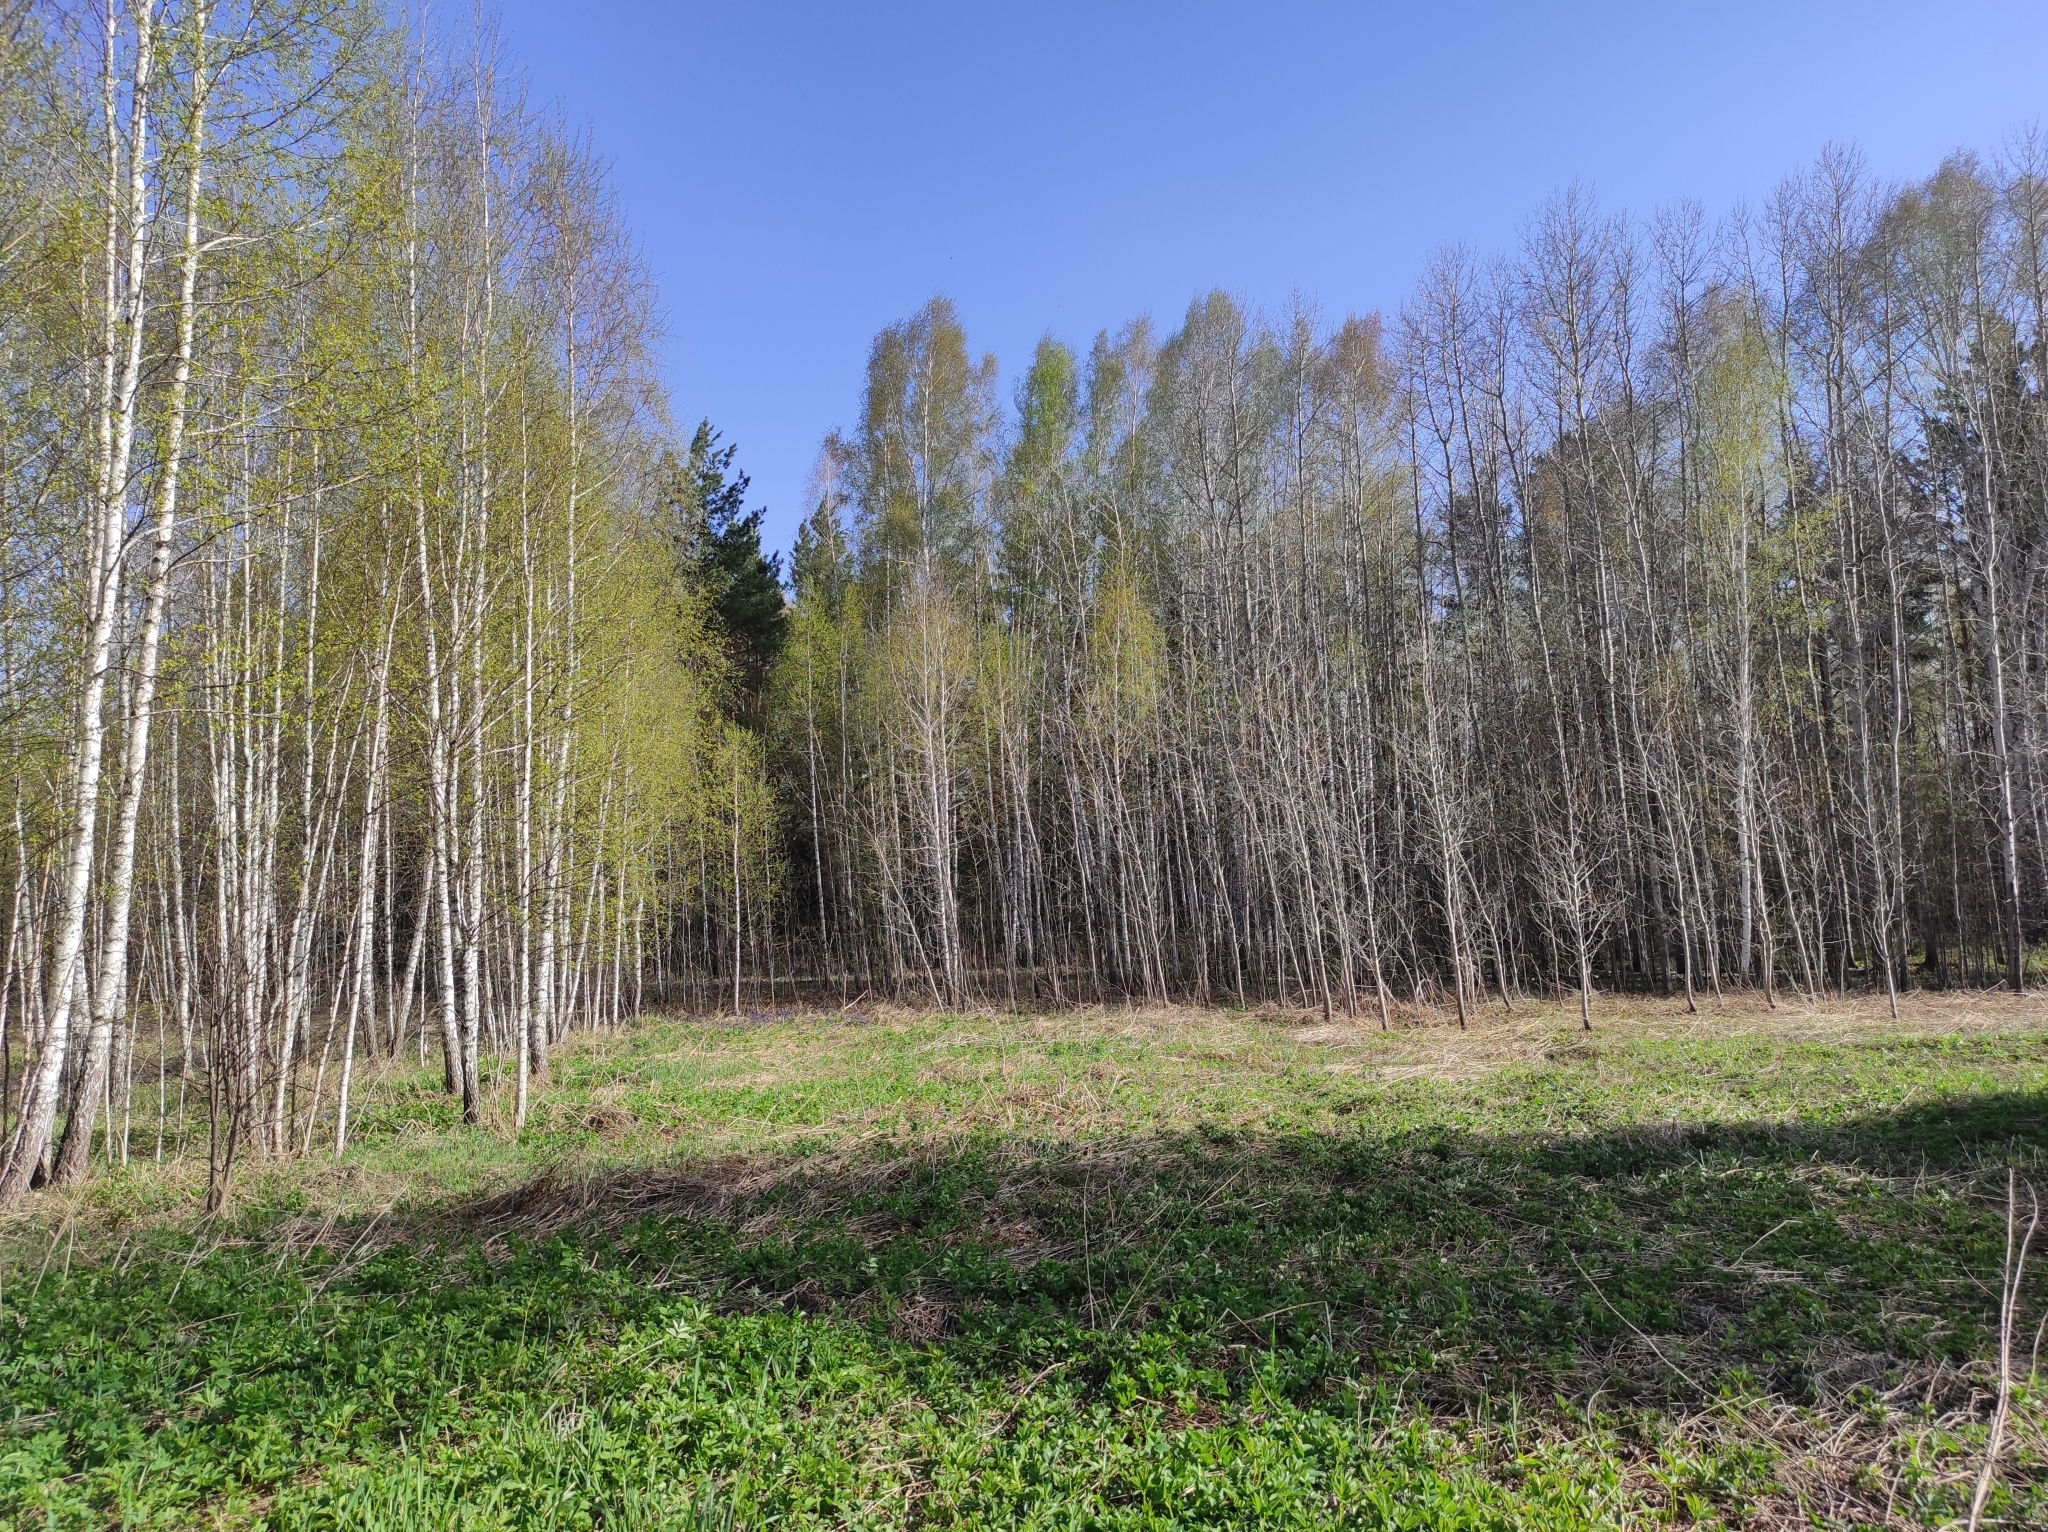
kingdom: Plantae
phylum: Tracheophyta
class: Magnoliopsida
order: Boraginales
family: Boraginaceae
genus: Pulmonaria
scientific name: Pulmonaria mollis
